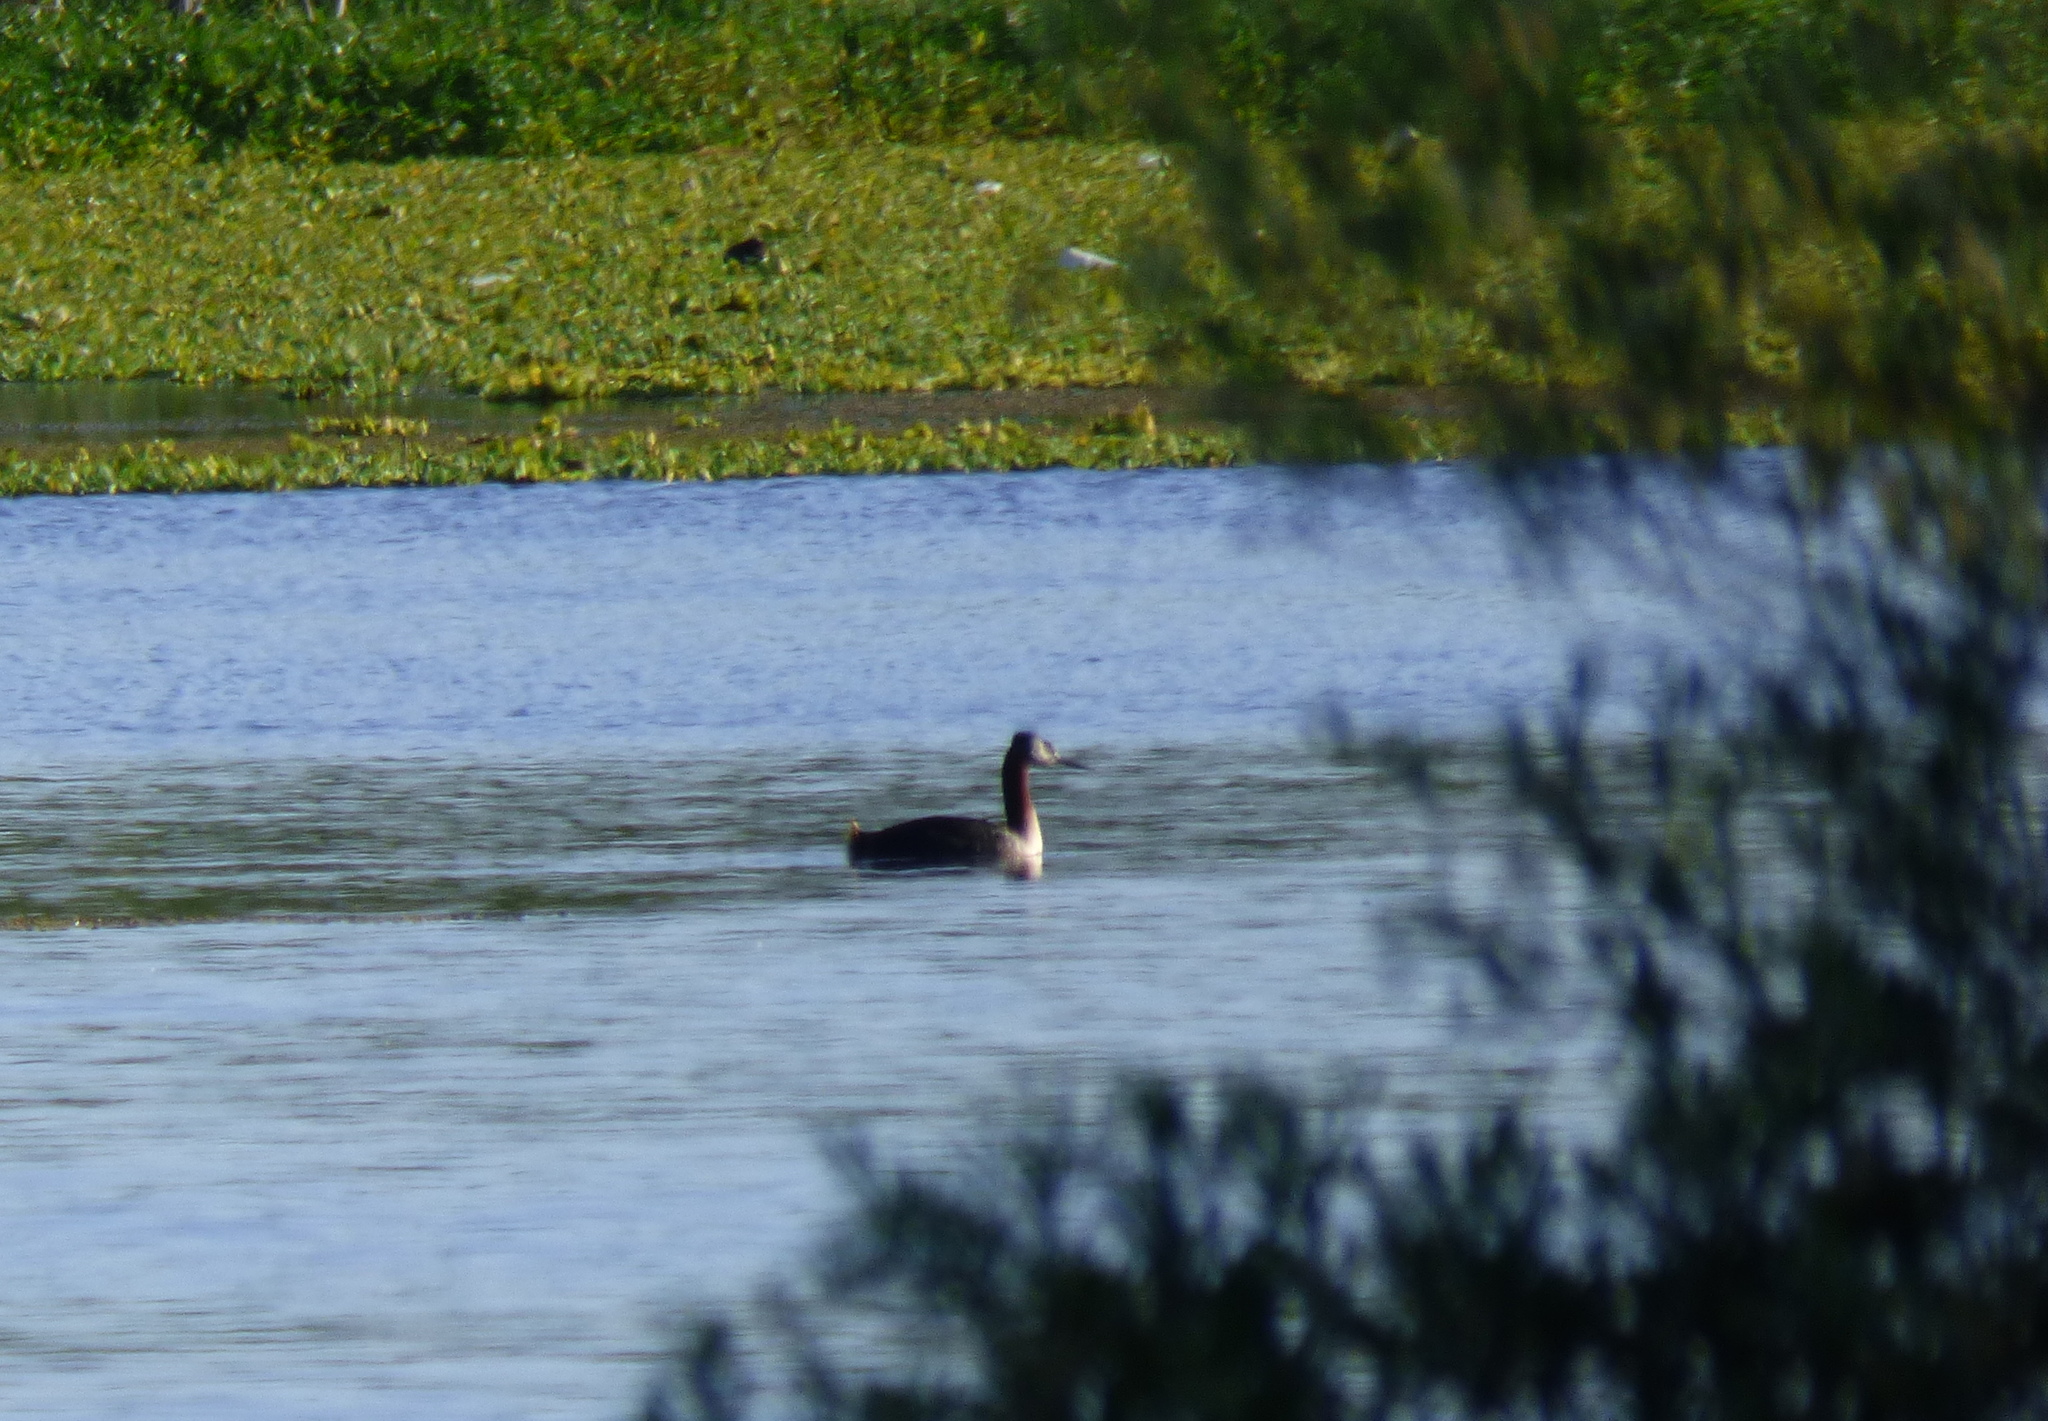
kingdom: Animalia
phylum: Chordata
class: Aves
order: Podicipediformes
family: Podicipedidae
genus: Podiceps
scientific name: Podiceps major
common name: Great grebe
